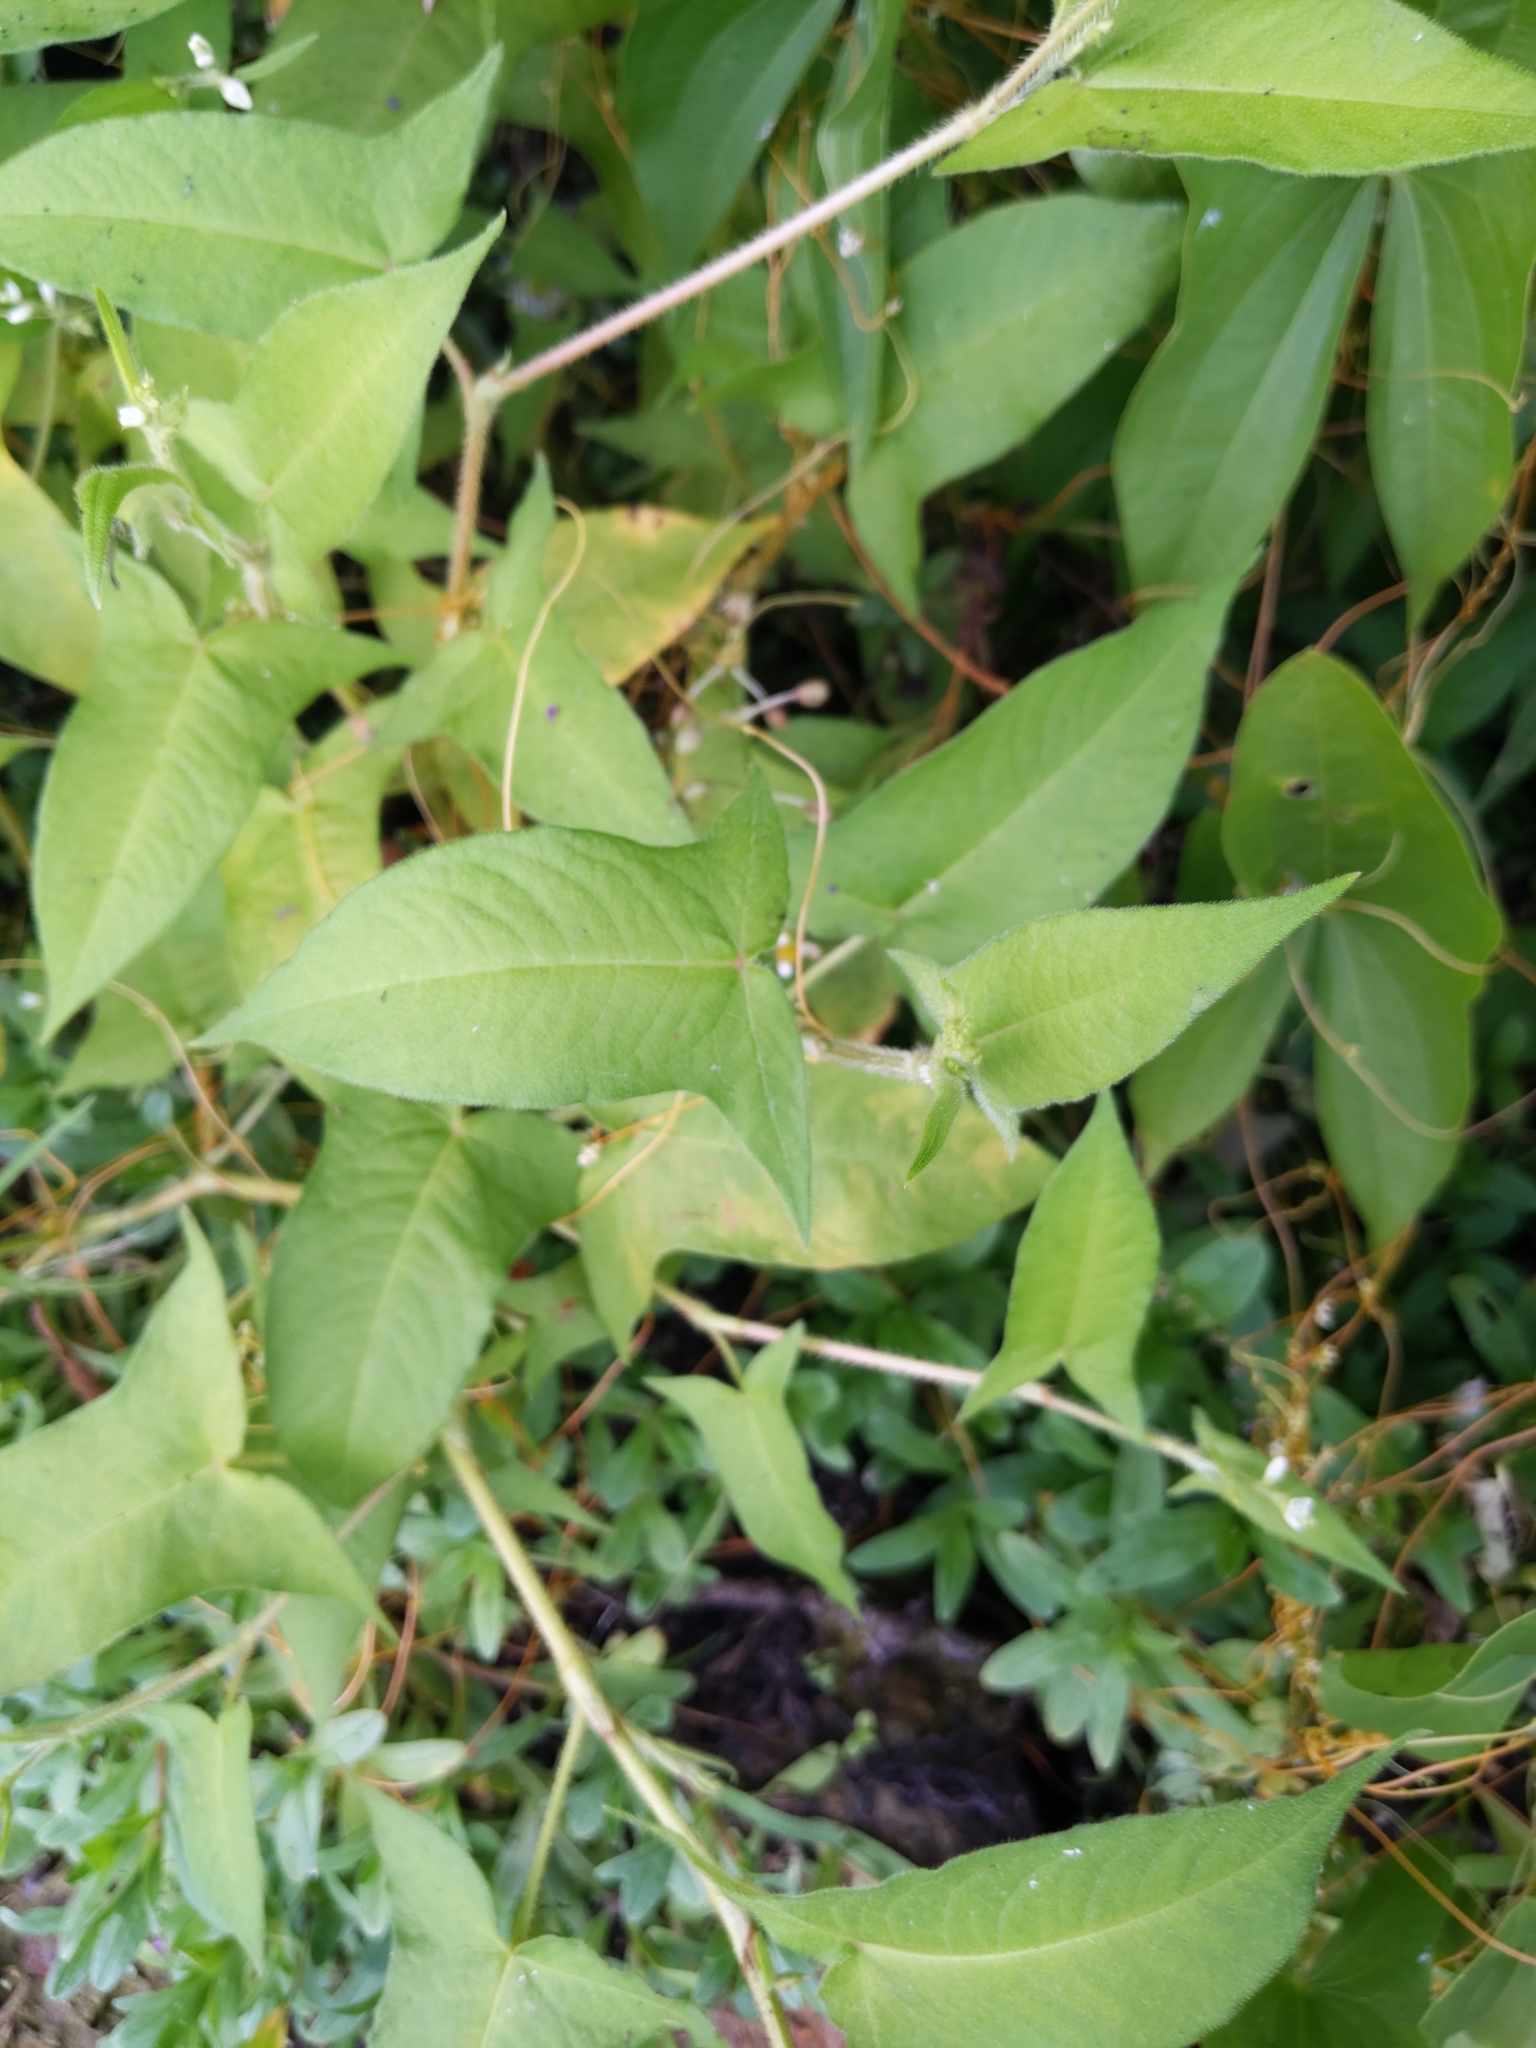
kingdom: Plantae
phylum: Tracheophyta
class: Magnoliopsida
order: Caryophyllales
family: Polygonaceae
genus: Persicaria
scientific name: Persicaria arifolia
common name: Halberd-leaved tear-thumb
